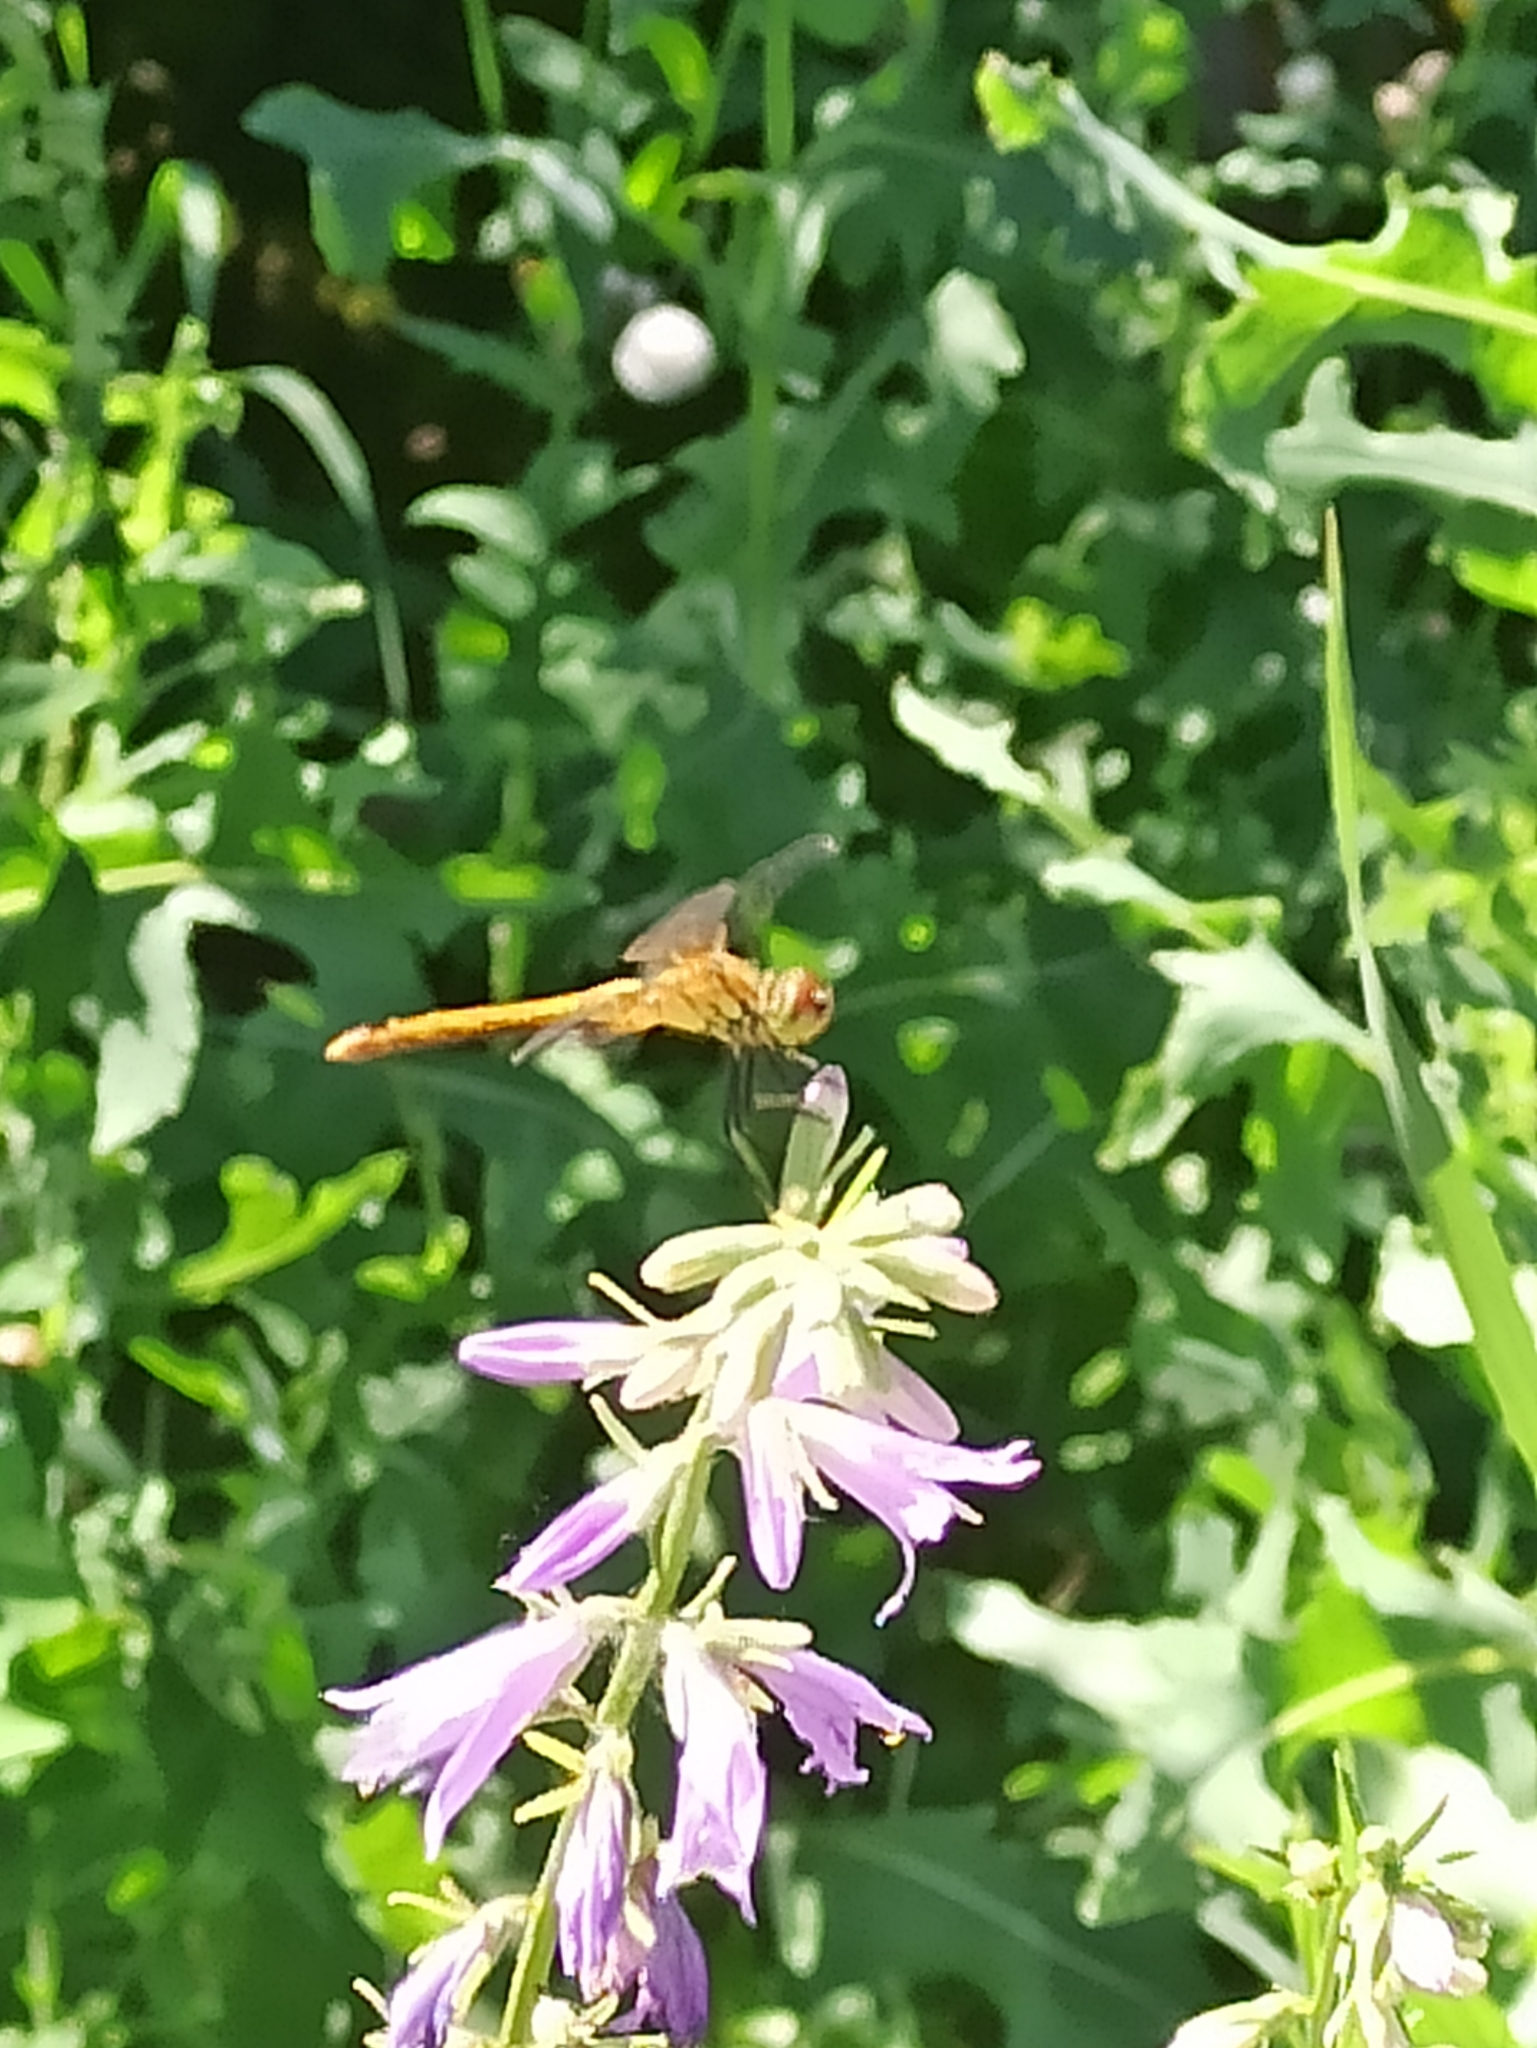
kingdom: Animalia
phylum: Arthropoda
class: Insecta
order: Odonata
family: Libellulidae
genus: Sympetrum
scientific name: Sympetrum sanguineum
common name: Ruddy darter
